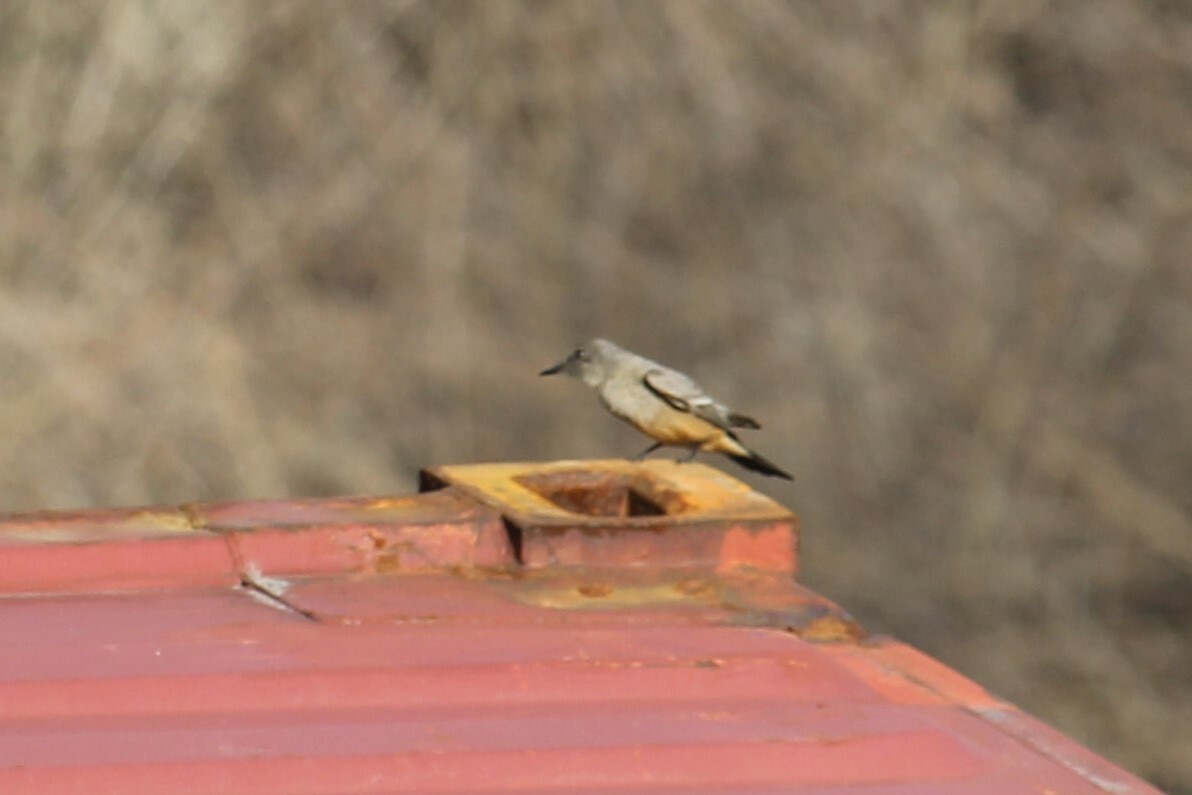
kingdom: Animalia
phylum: Chordata
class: Aves
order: Passeriformes
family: Tyrannidae
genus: Sayornis
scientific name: Sayornis saya
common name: Say's phoebe
